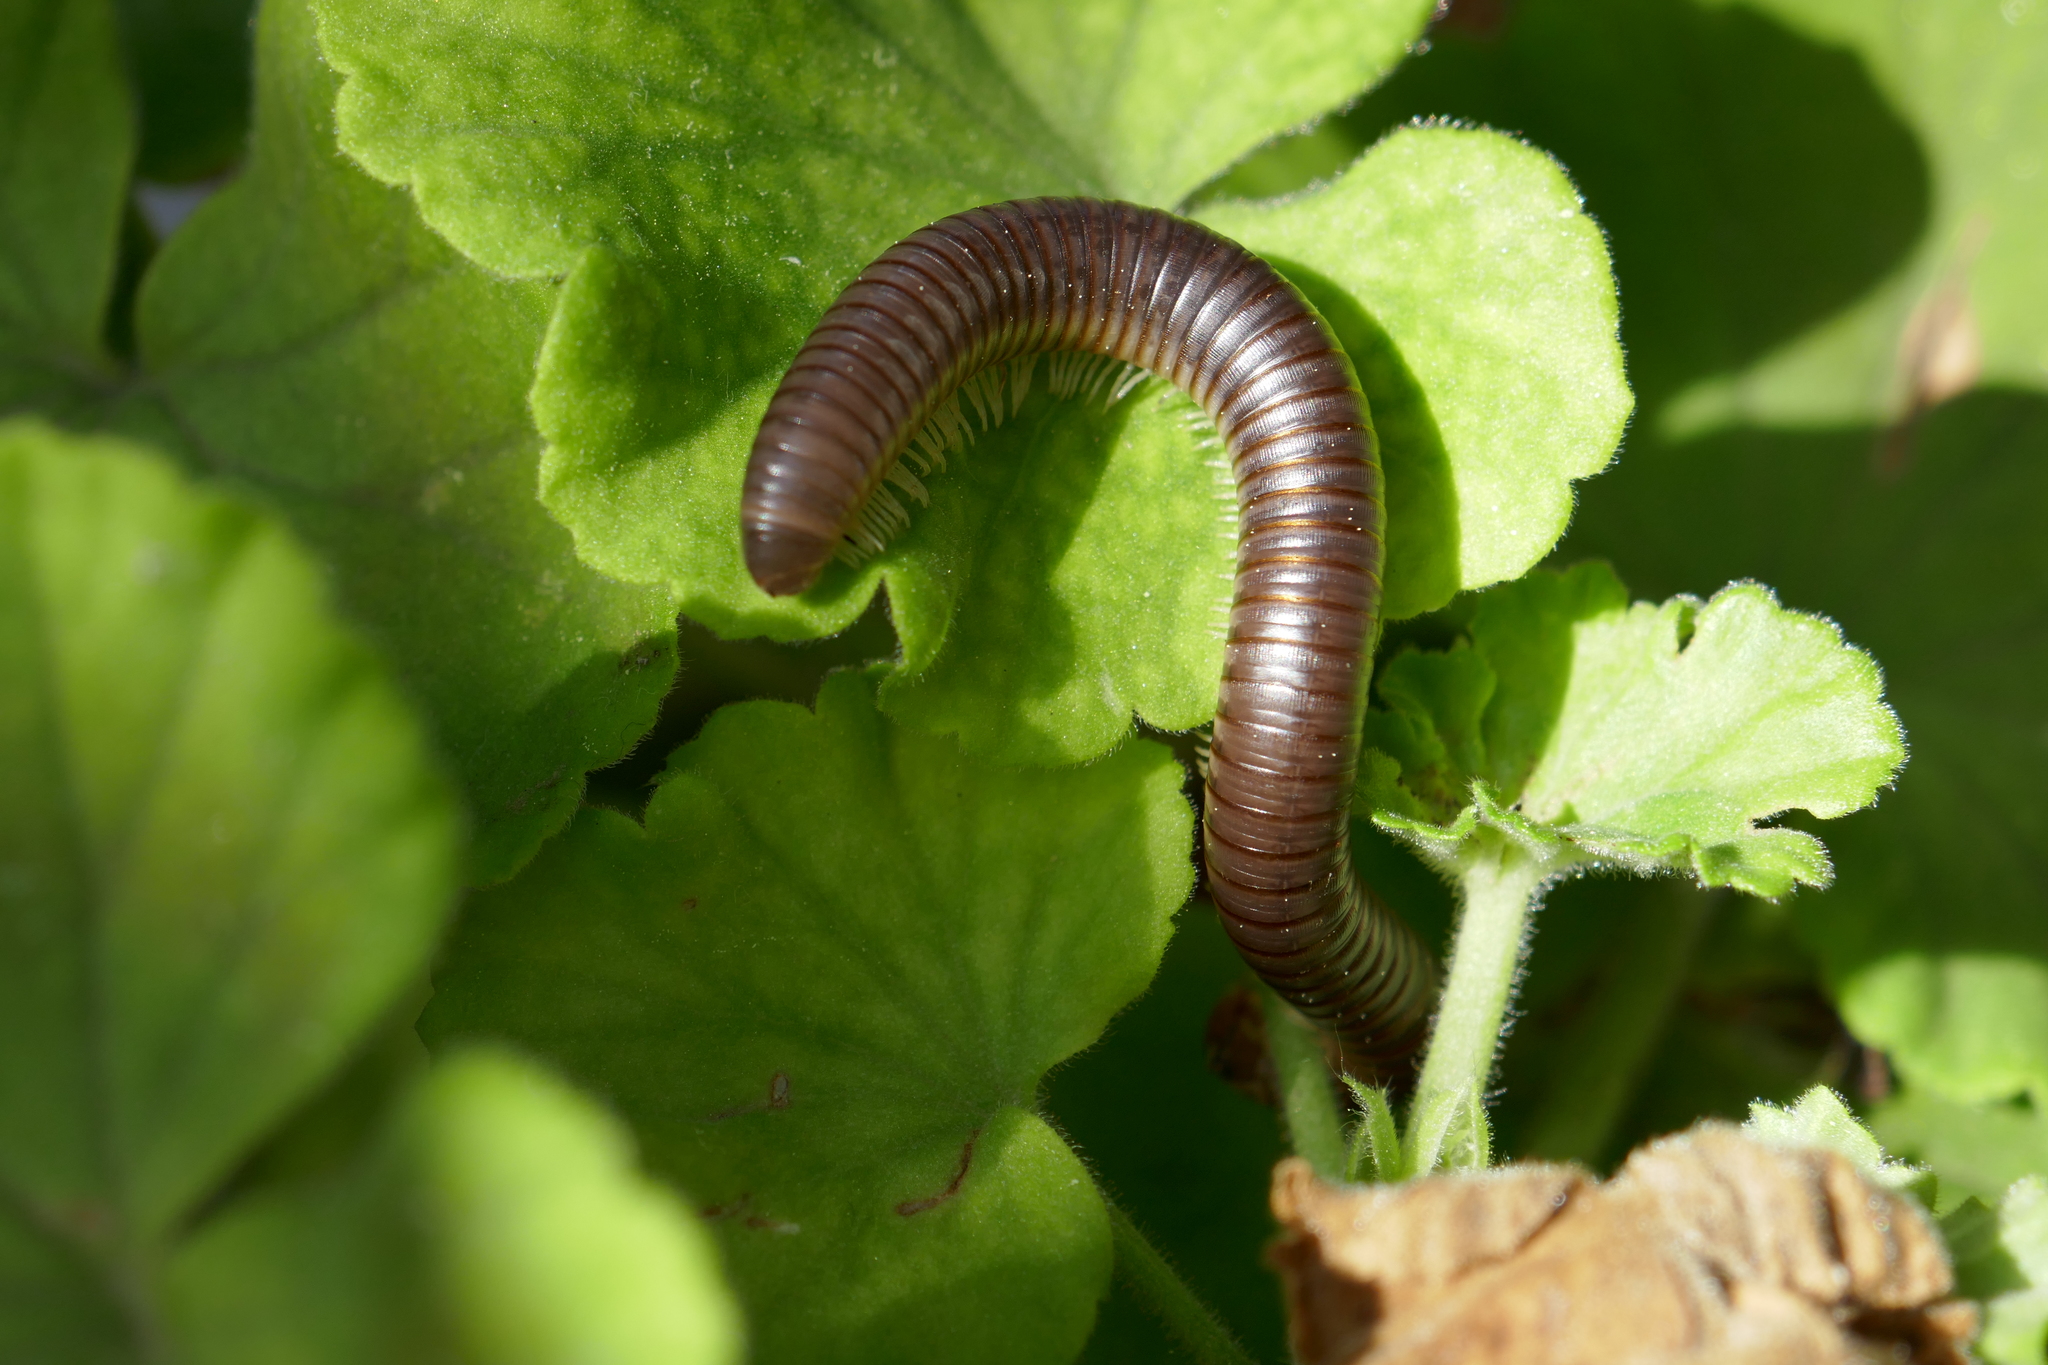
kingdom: Animalia
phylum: Arthropoda
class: Diplopoda
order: Julida
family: Julidae
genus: Pachyiulus
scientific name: Pachyiulus flavipes
